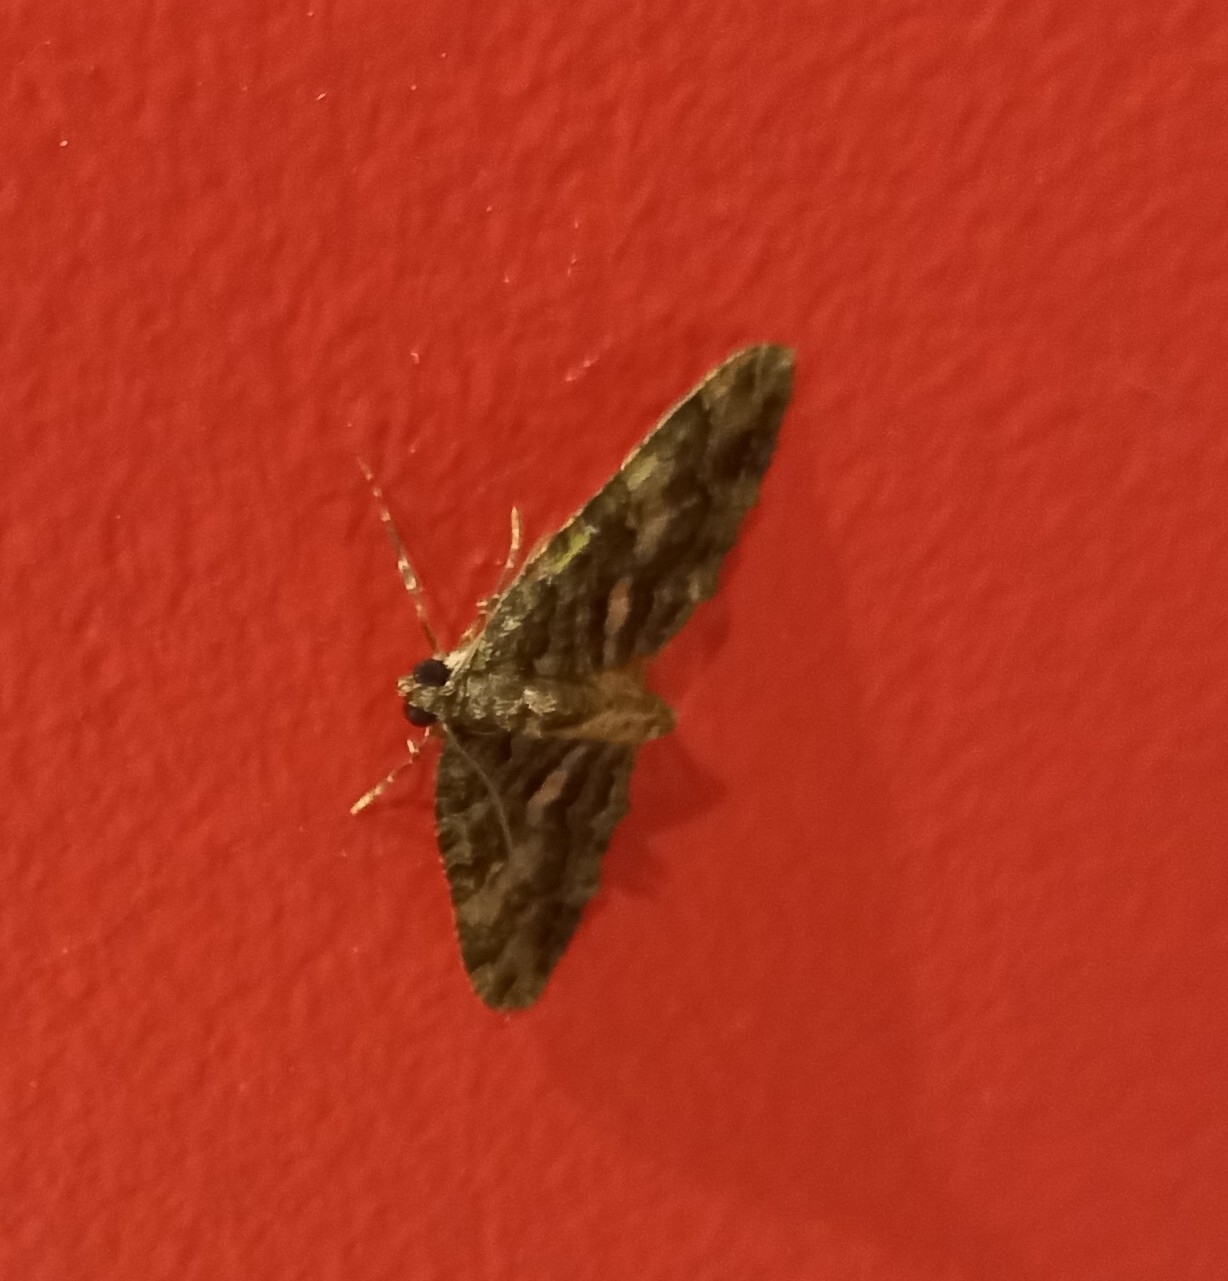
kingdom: Animalia
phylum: Arthropoda
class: Insecta
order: Lepidoptera
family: Geometridae
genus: Austrocidaria
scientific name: Austrocidaria similata
